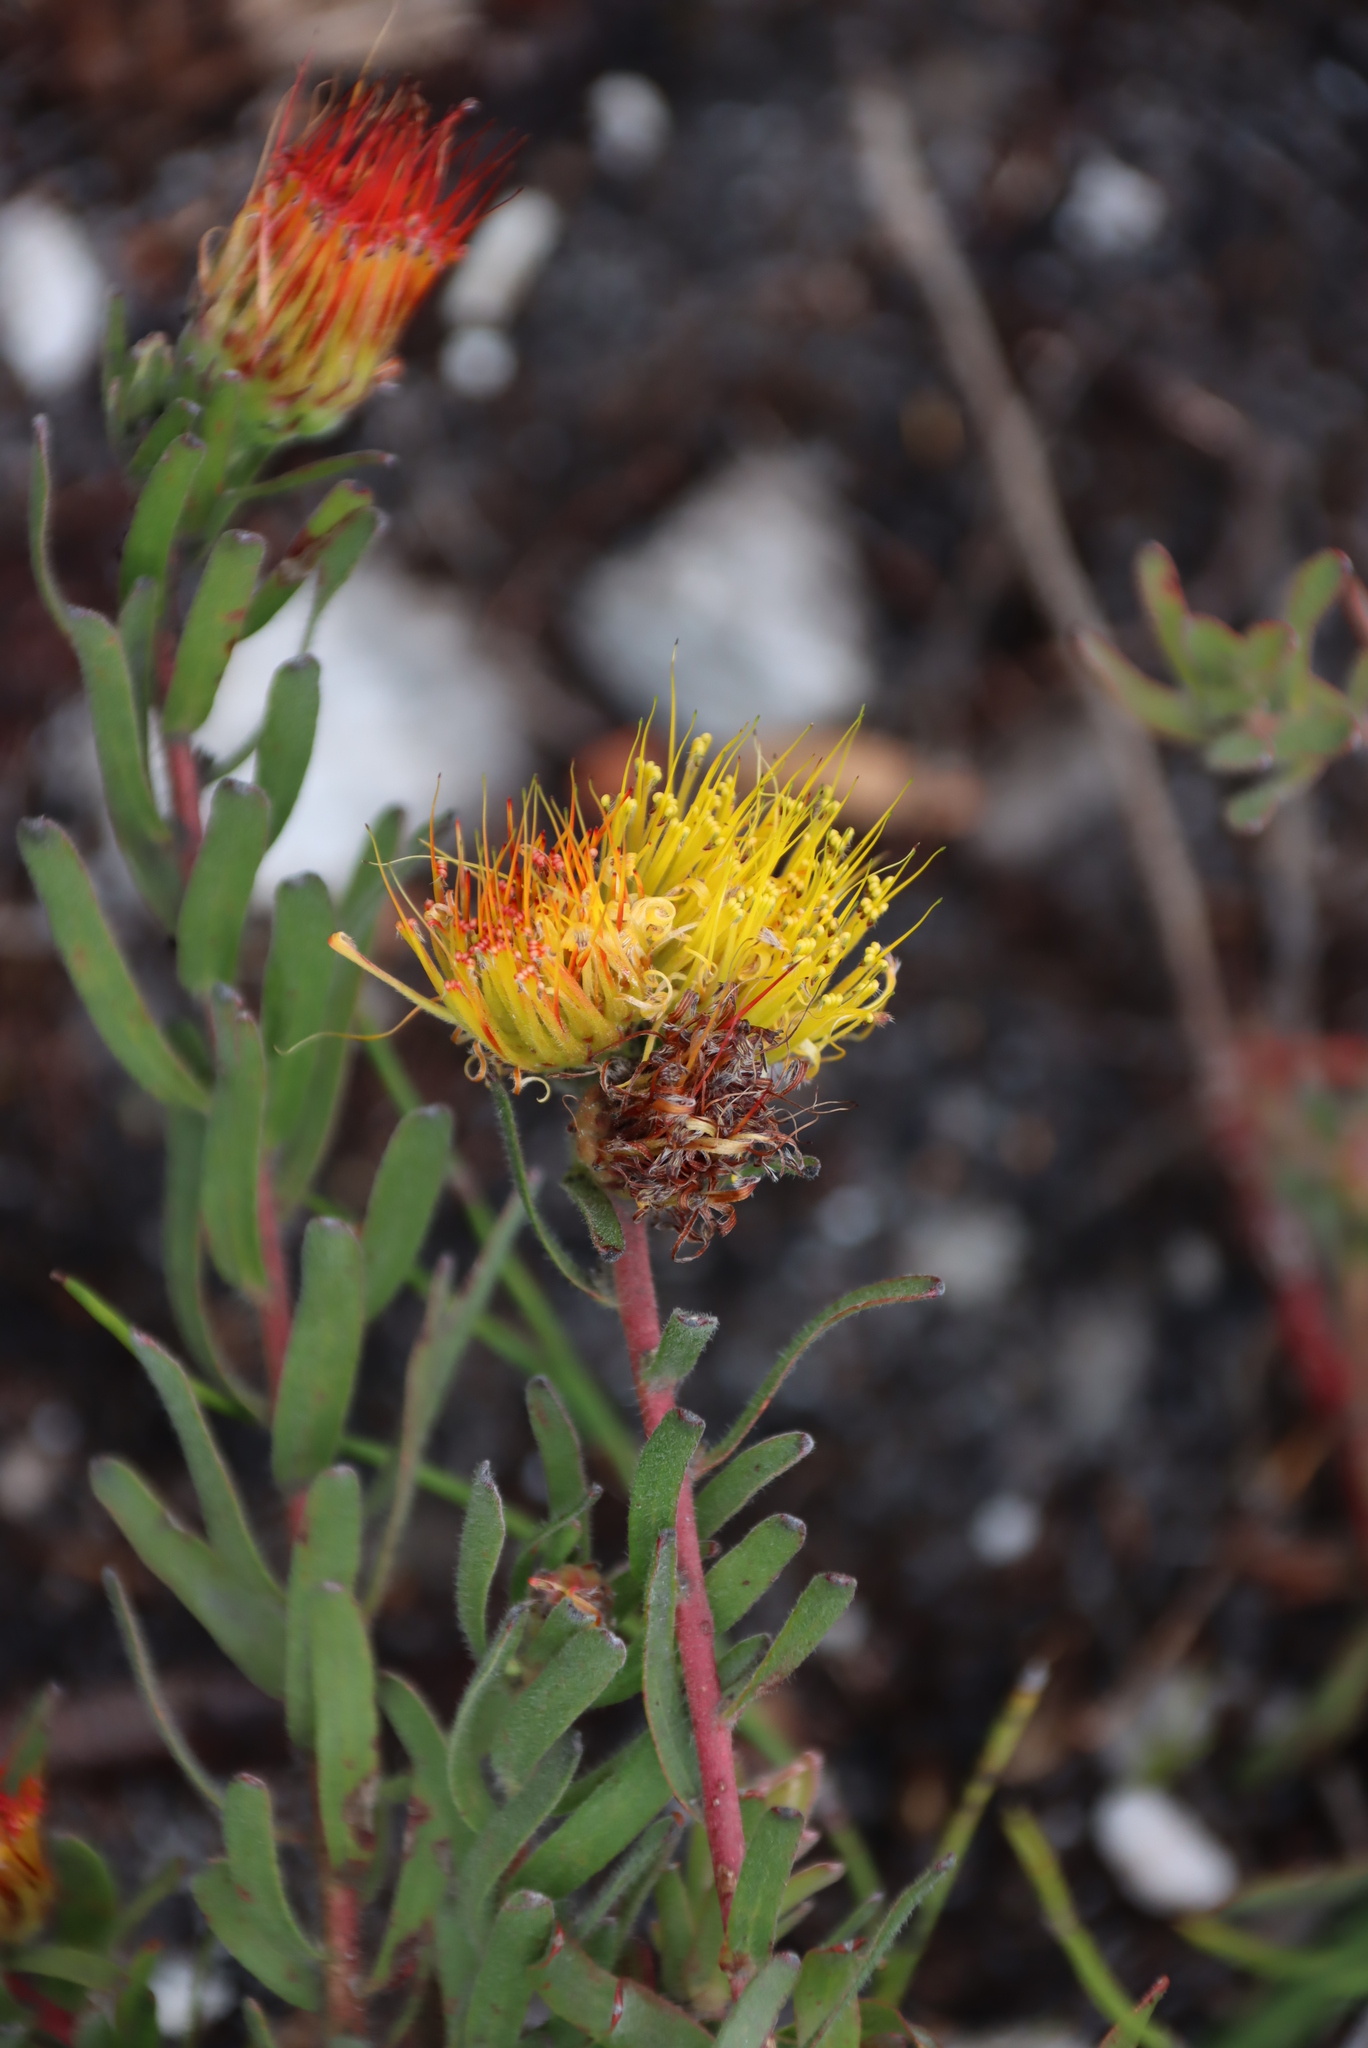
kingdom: Plantae
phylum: Tracheophyta
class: Magnoliopsida
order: Proteales
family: Proteaceae
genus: Leucospermum
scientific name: Leucospermum gracile
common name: Hermanus pincushion
